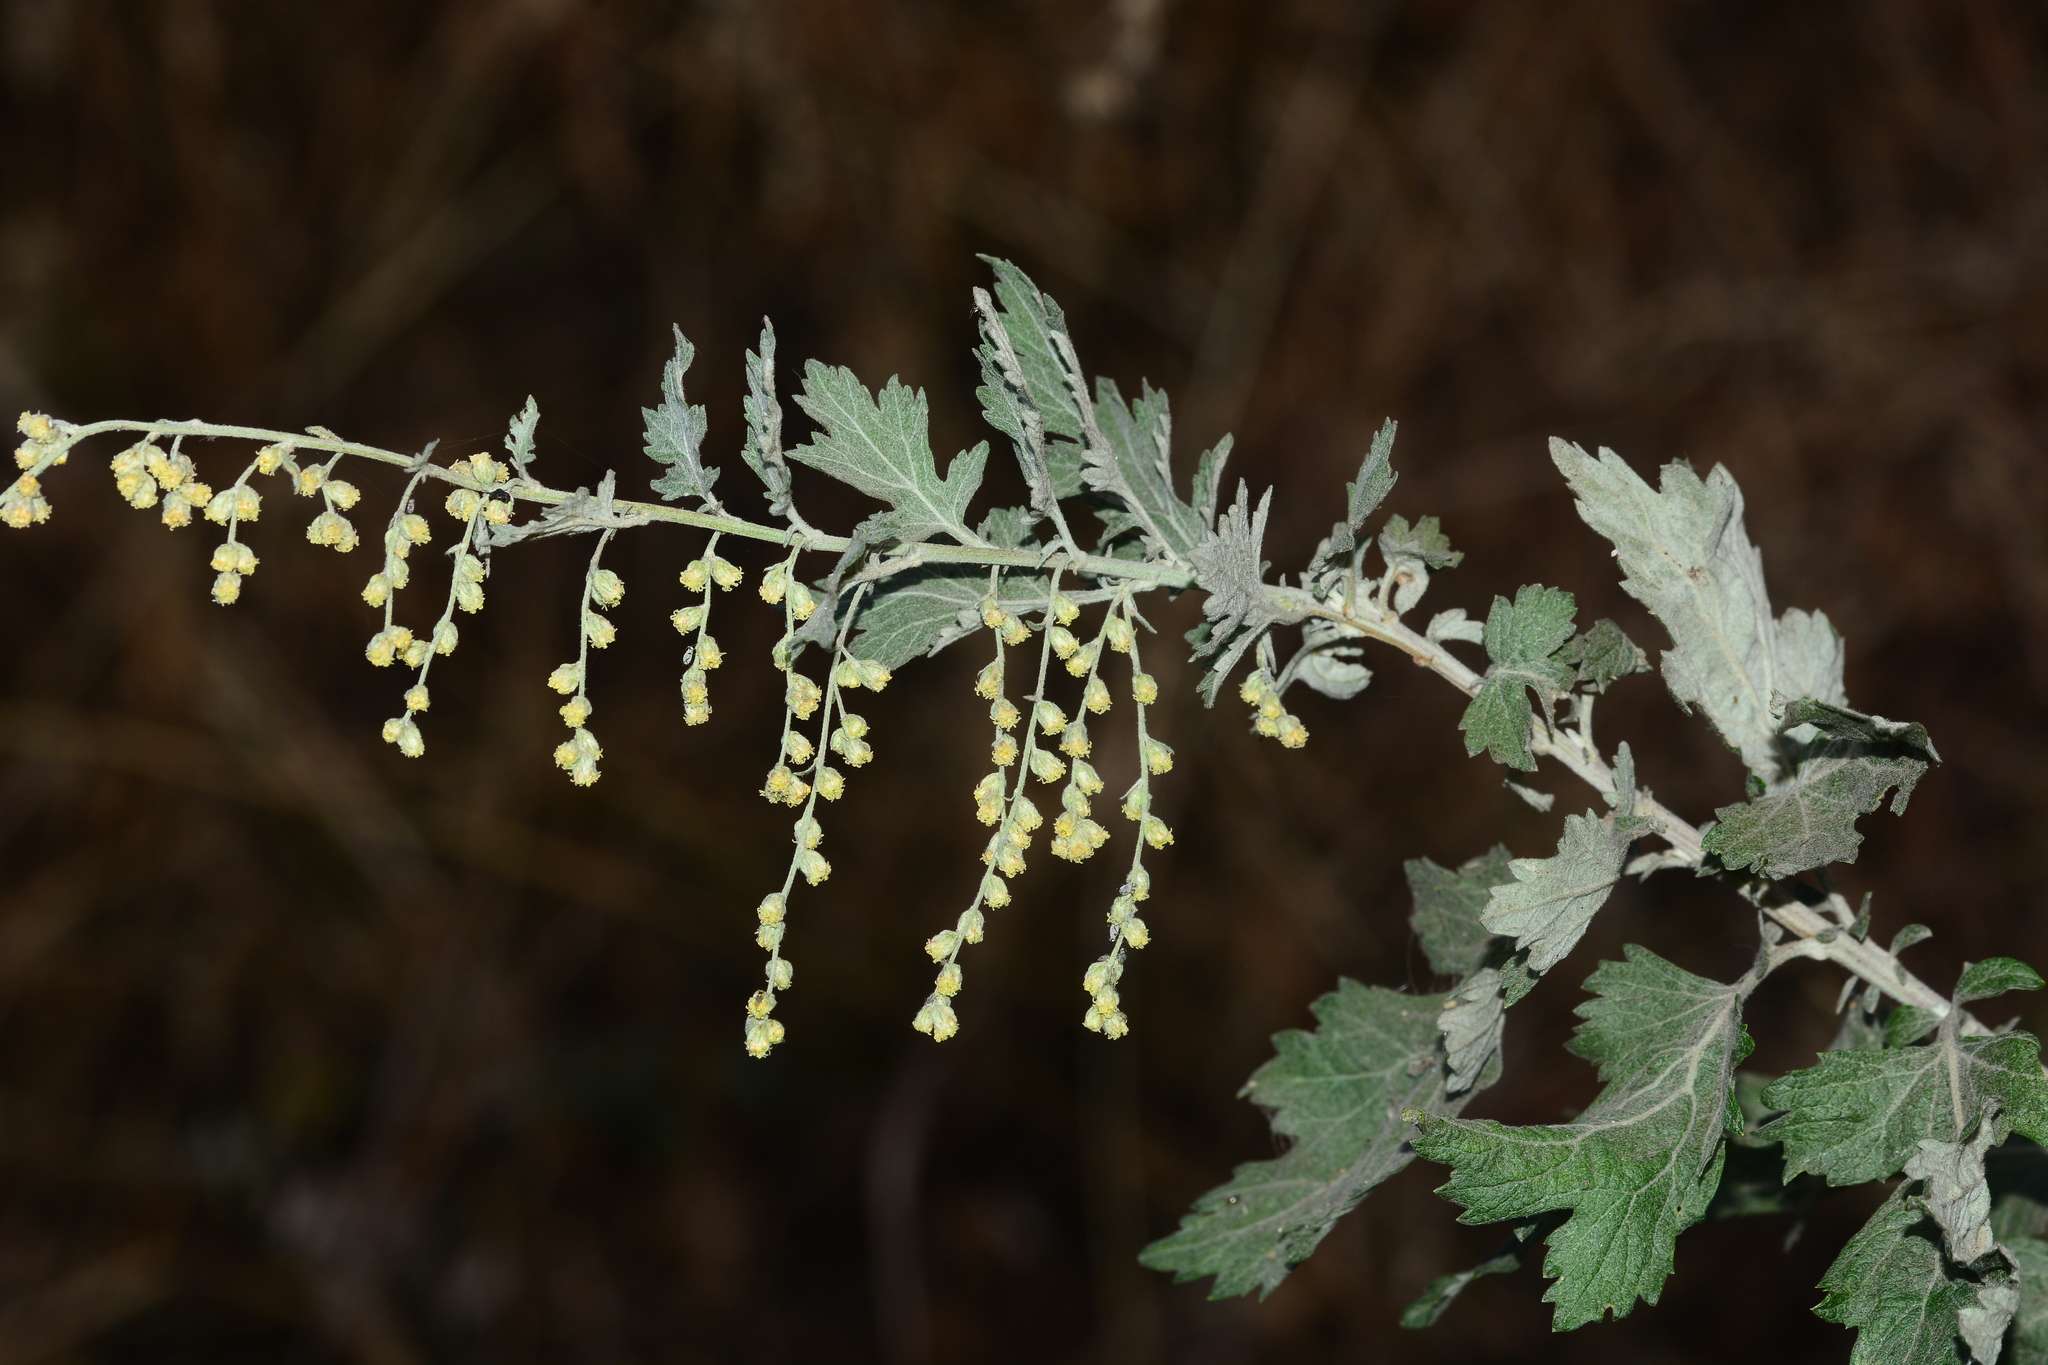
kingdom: Plantae
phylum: Tracheophyta
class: Magnoliopsida
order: Asterales
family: Asteraceae
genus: Artemisia
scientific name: Artemisia nilagirica
